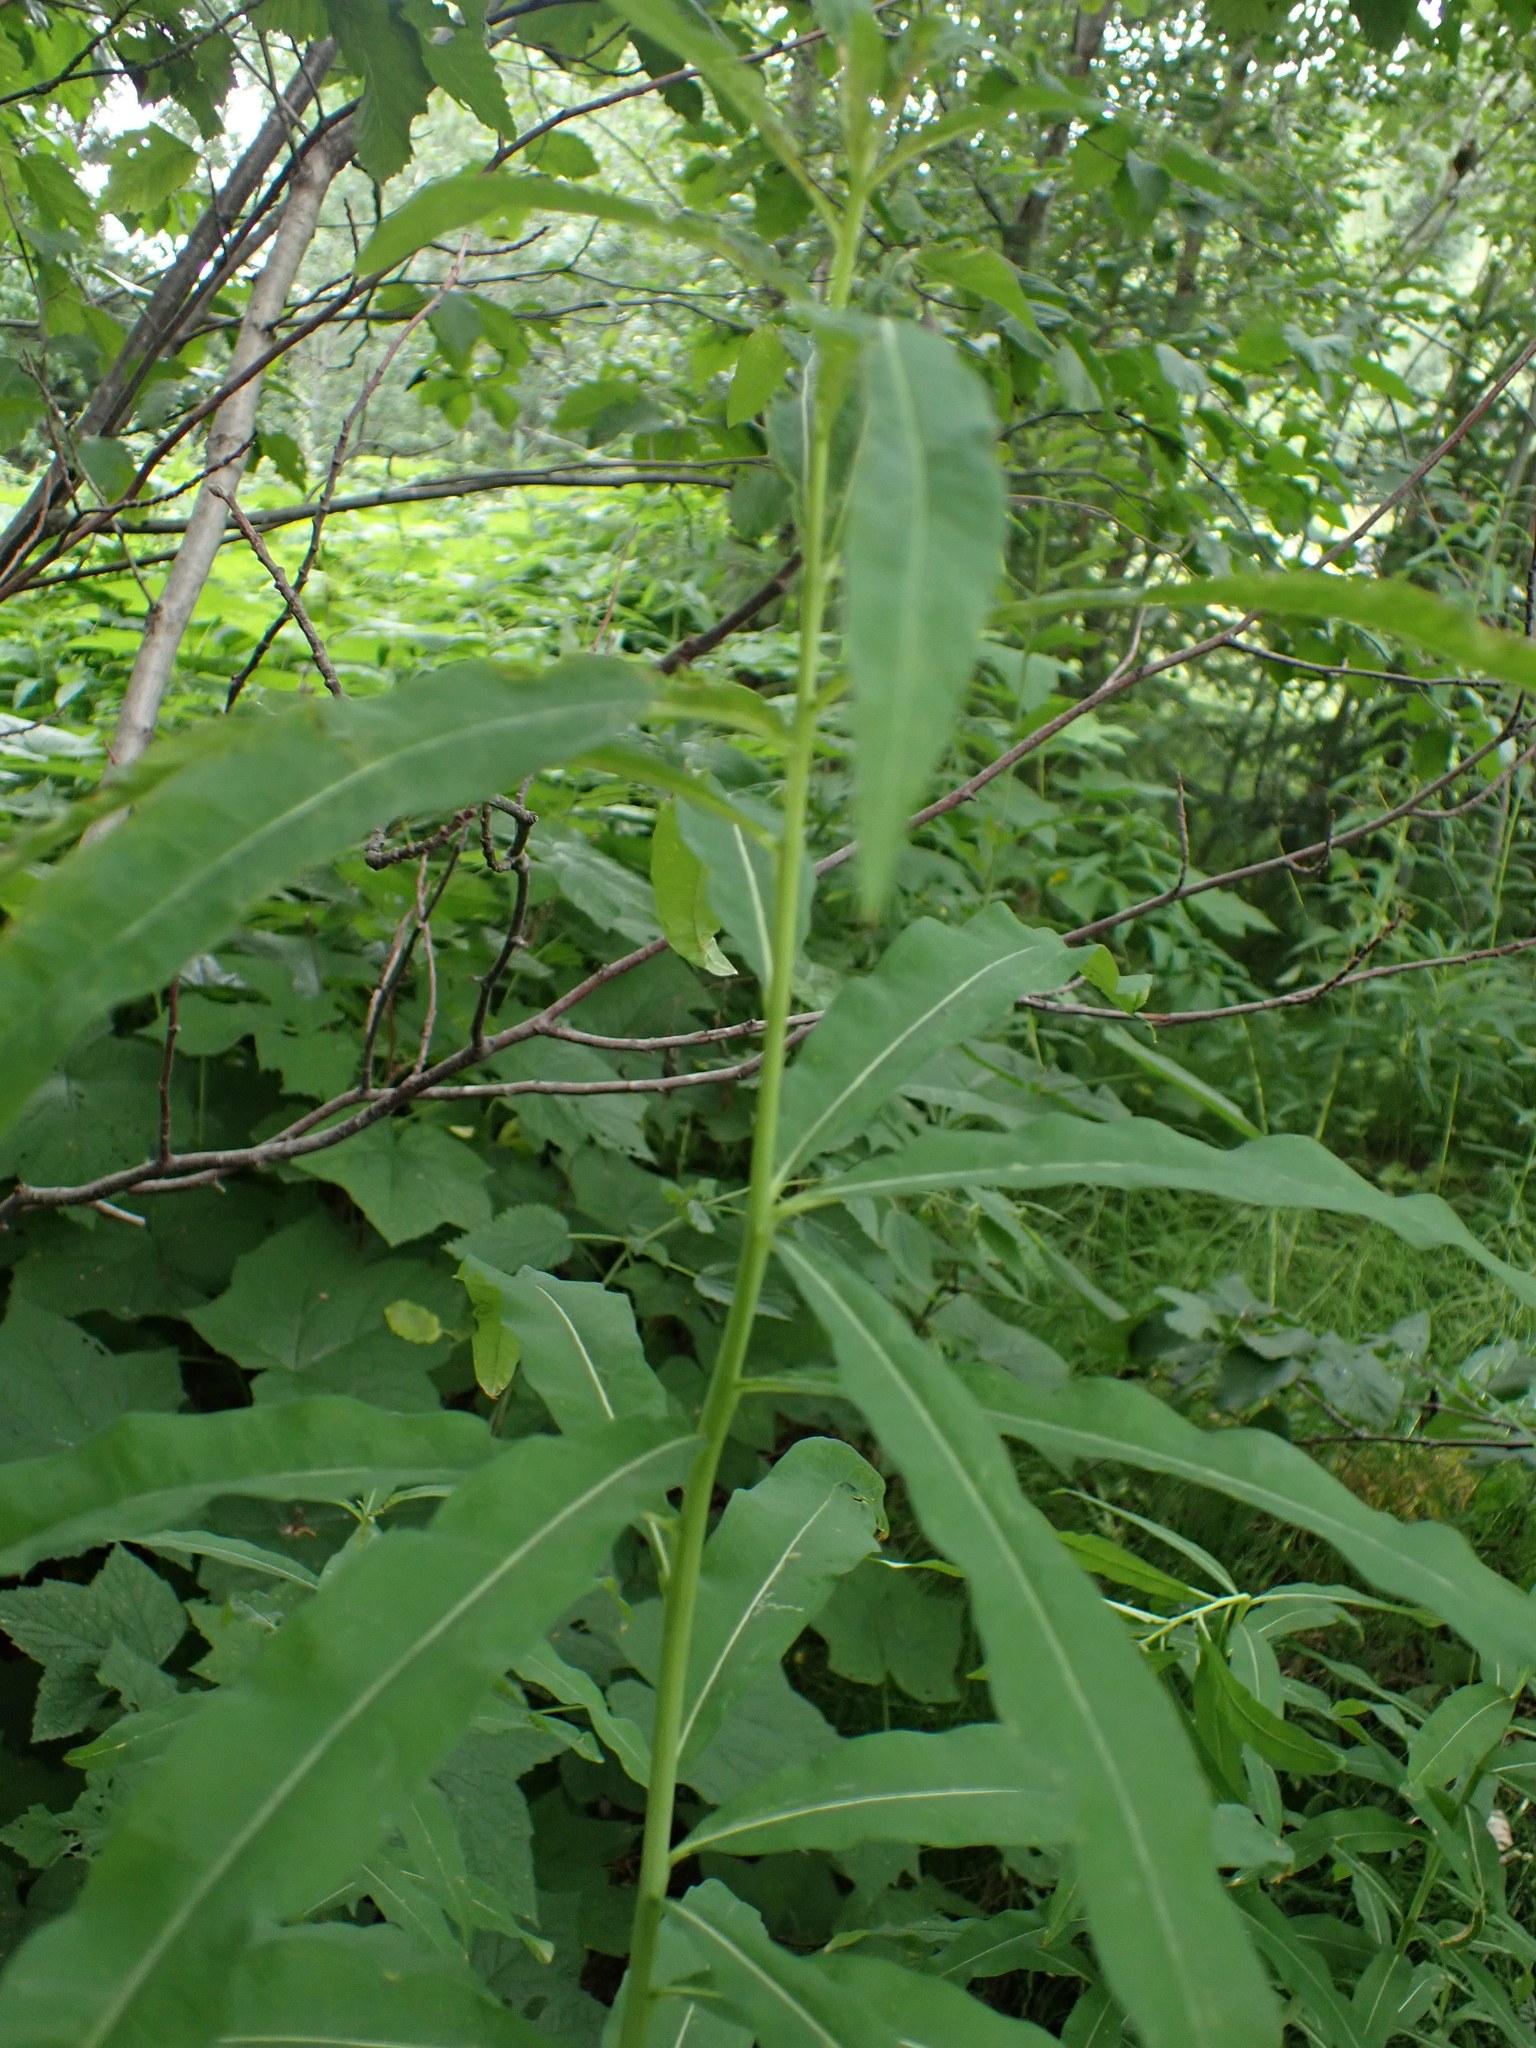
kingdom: Plantae
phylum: Tracheophyta
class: Magnoliopsida
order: Myrtales
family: Onagraceae
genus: Chamaenerion
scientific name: Chamaenerion angustifolium
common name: Fireweed
